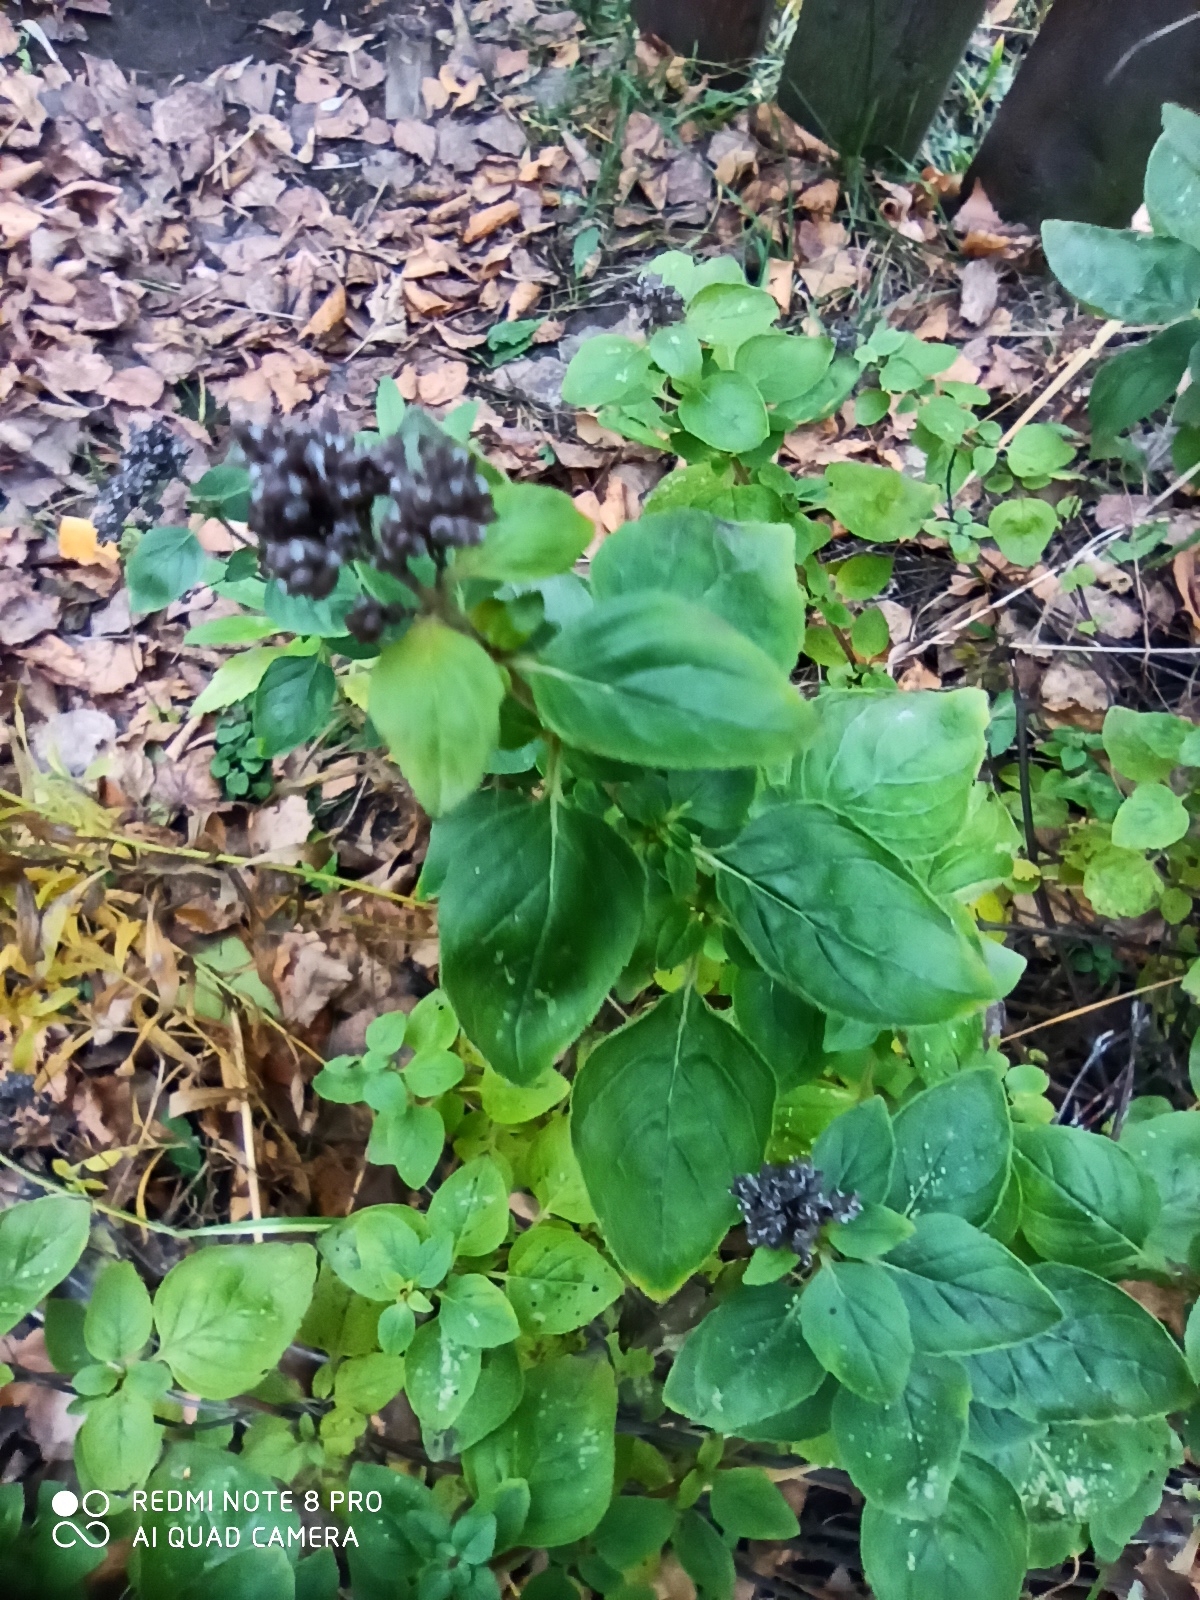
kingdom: Plantae
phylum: Tracheophyta
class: Magnoliopsida
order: Lamiales
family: Lamiaceae
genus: Origanum
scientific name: Origanum vulgare
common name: Wild marjoram
